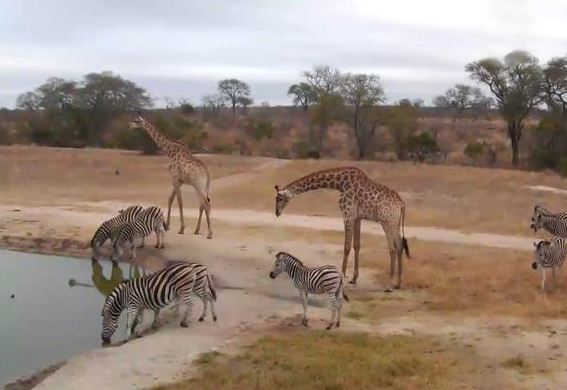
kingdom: Animalia
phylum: Chordata
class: Mammalia
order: Artiodactyla
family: Giraffidae
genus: Giraffa
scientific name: Giraffa giraffa
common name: Southern giraffe
